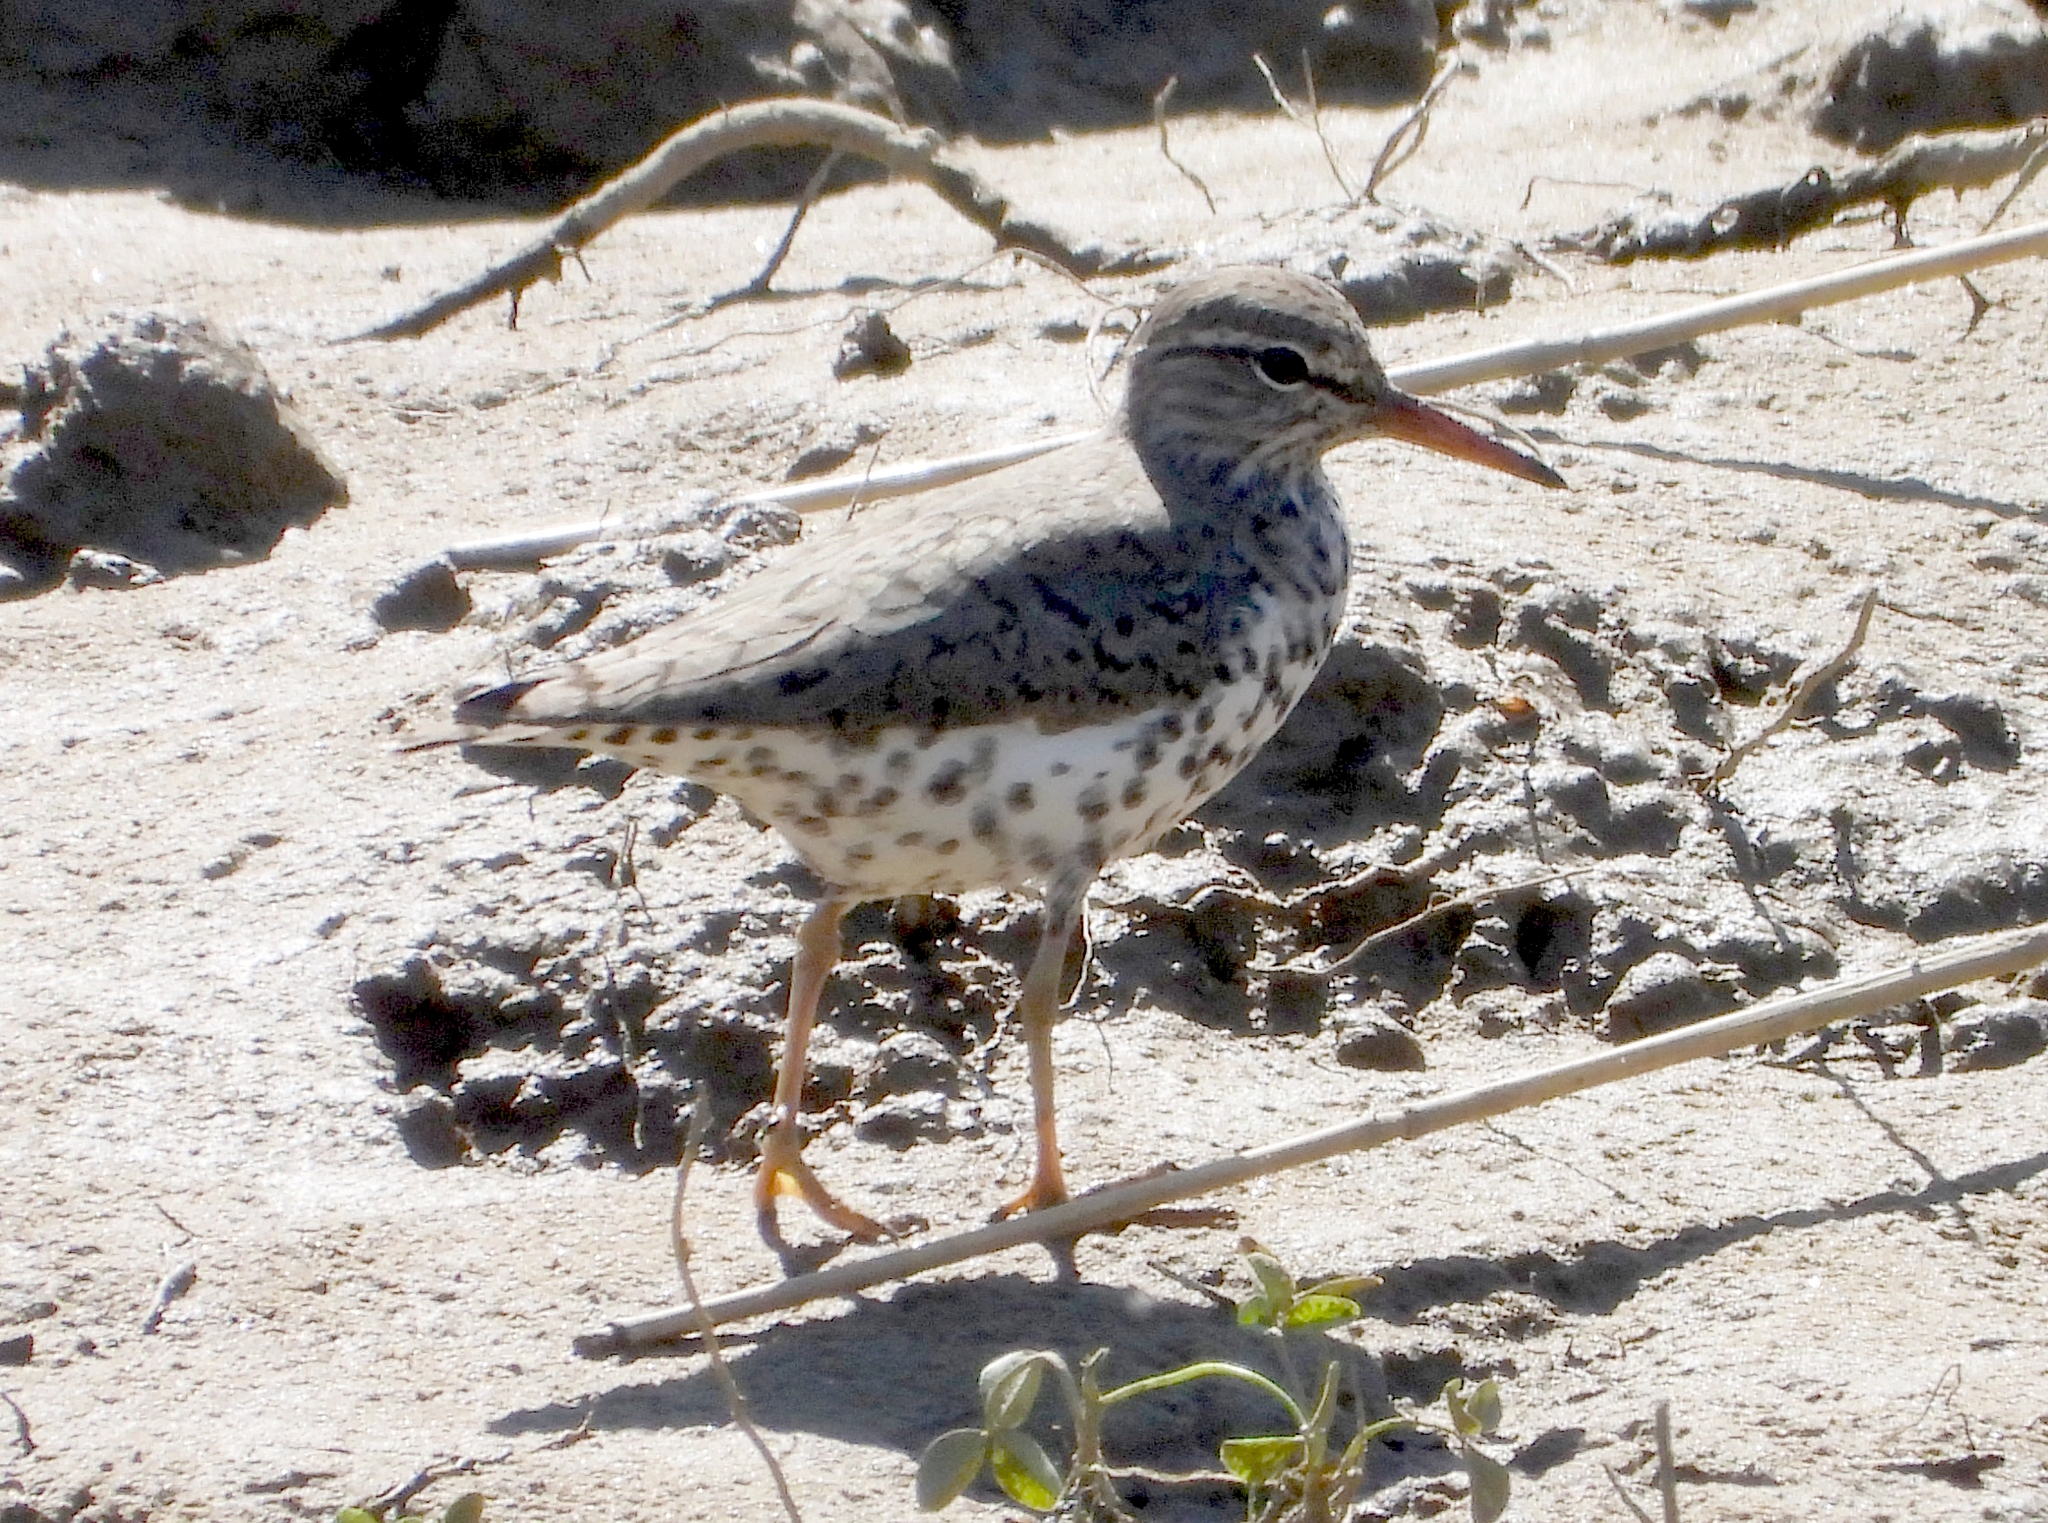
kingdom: Animalia
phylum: Chordata
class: Aves
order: Charadriiformes
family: Scolopacidae
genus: Actitis
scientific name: Actitis macularius
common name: Spotted sandpiper
